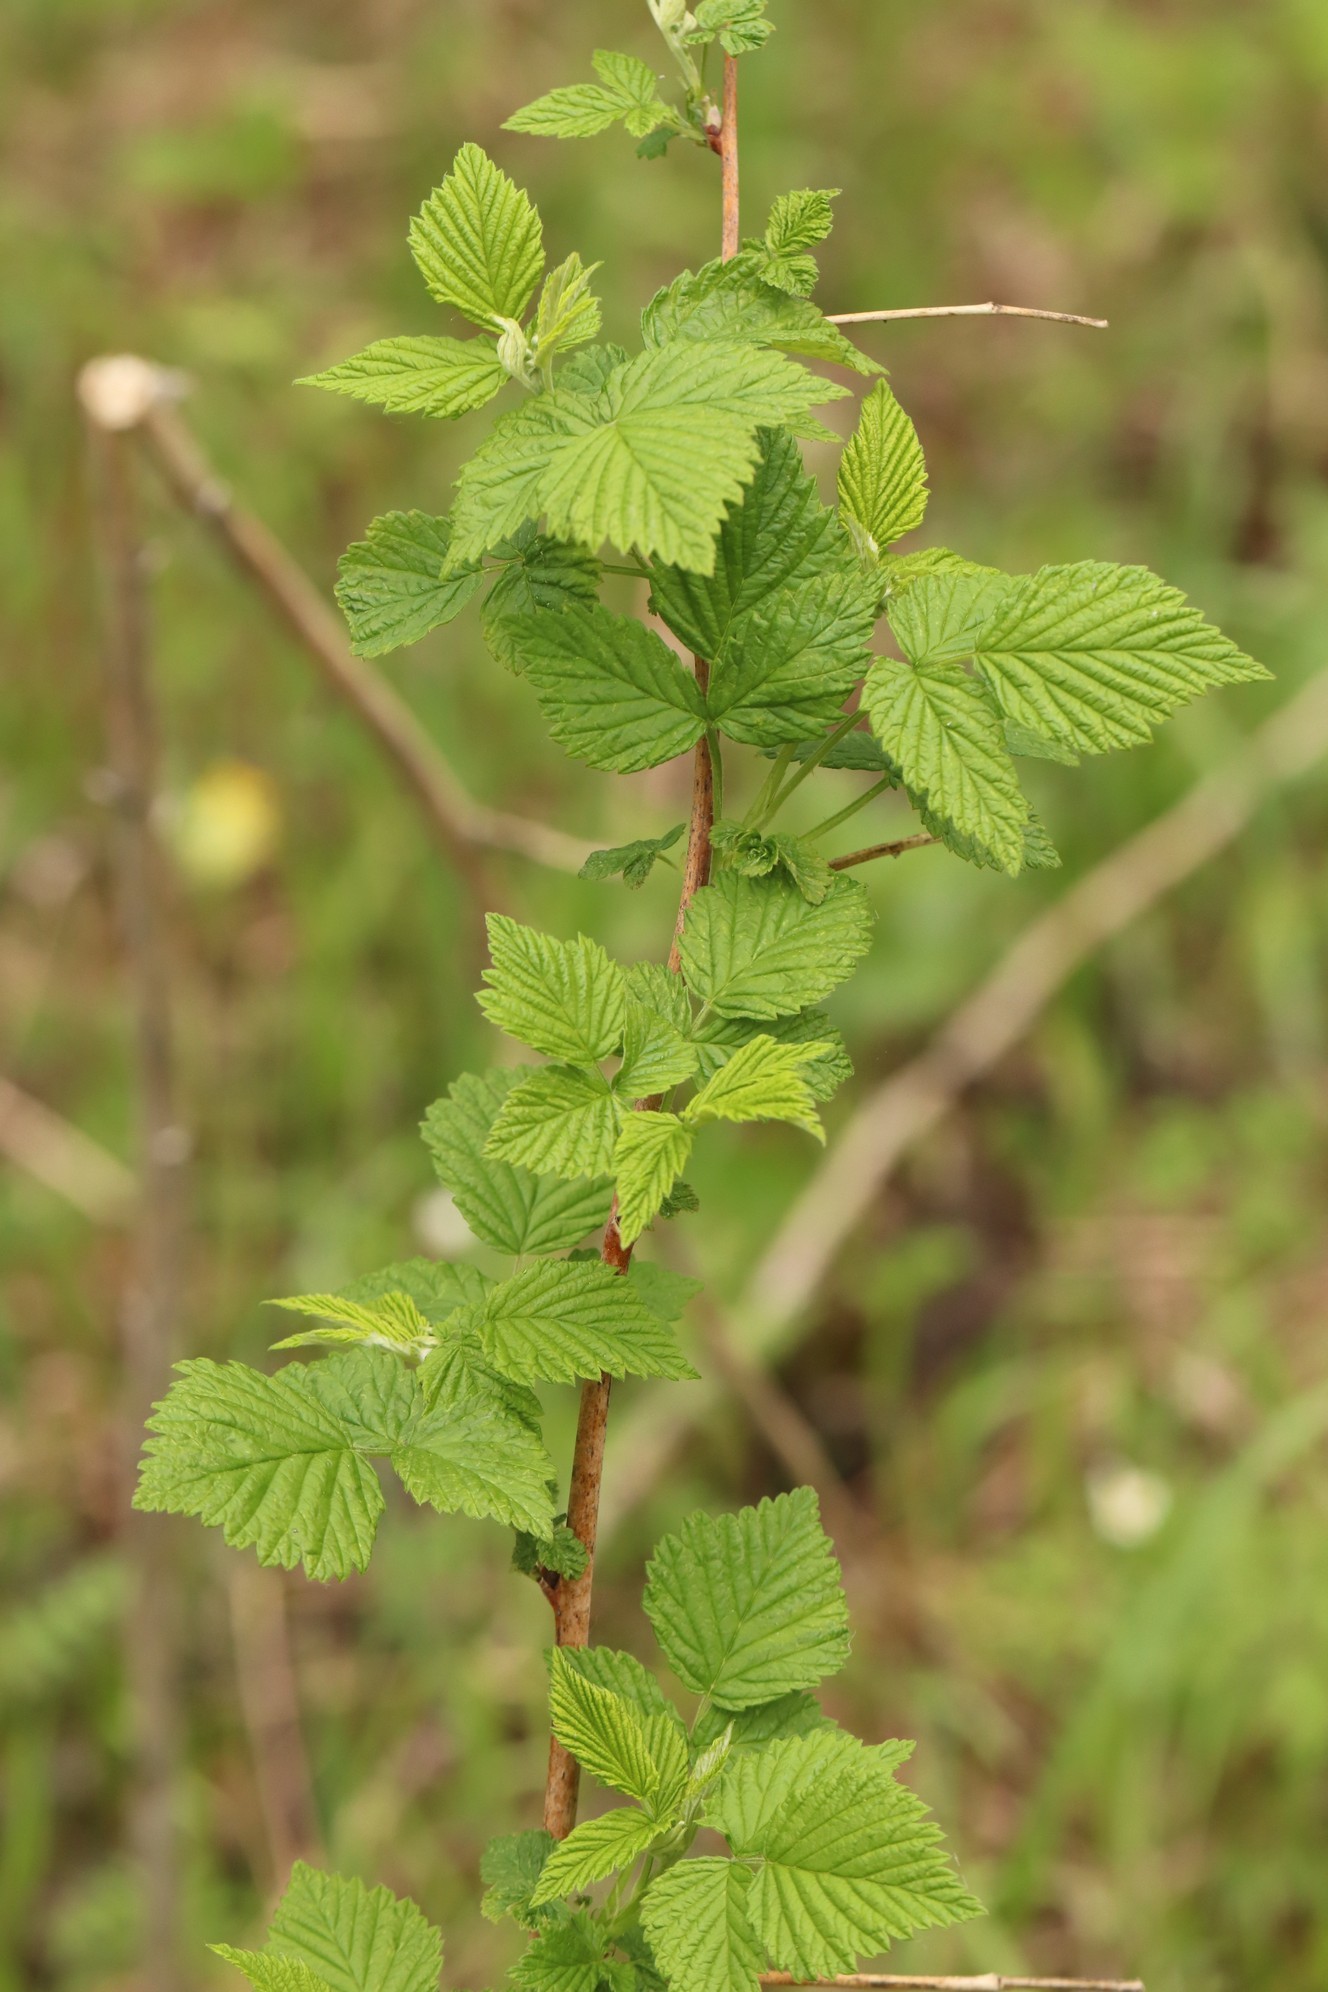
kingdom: Plantae
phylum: Tracheophyta
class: Magnoliopsida
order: Rosales
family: Rosaceae
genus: Rubus
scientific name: Rubus idaeus
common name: Raspberry
